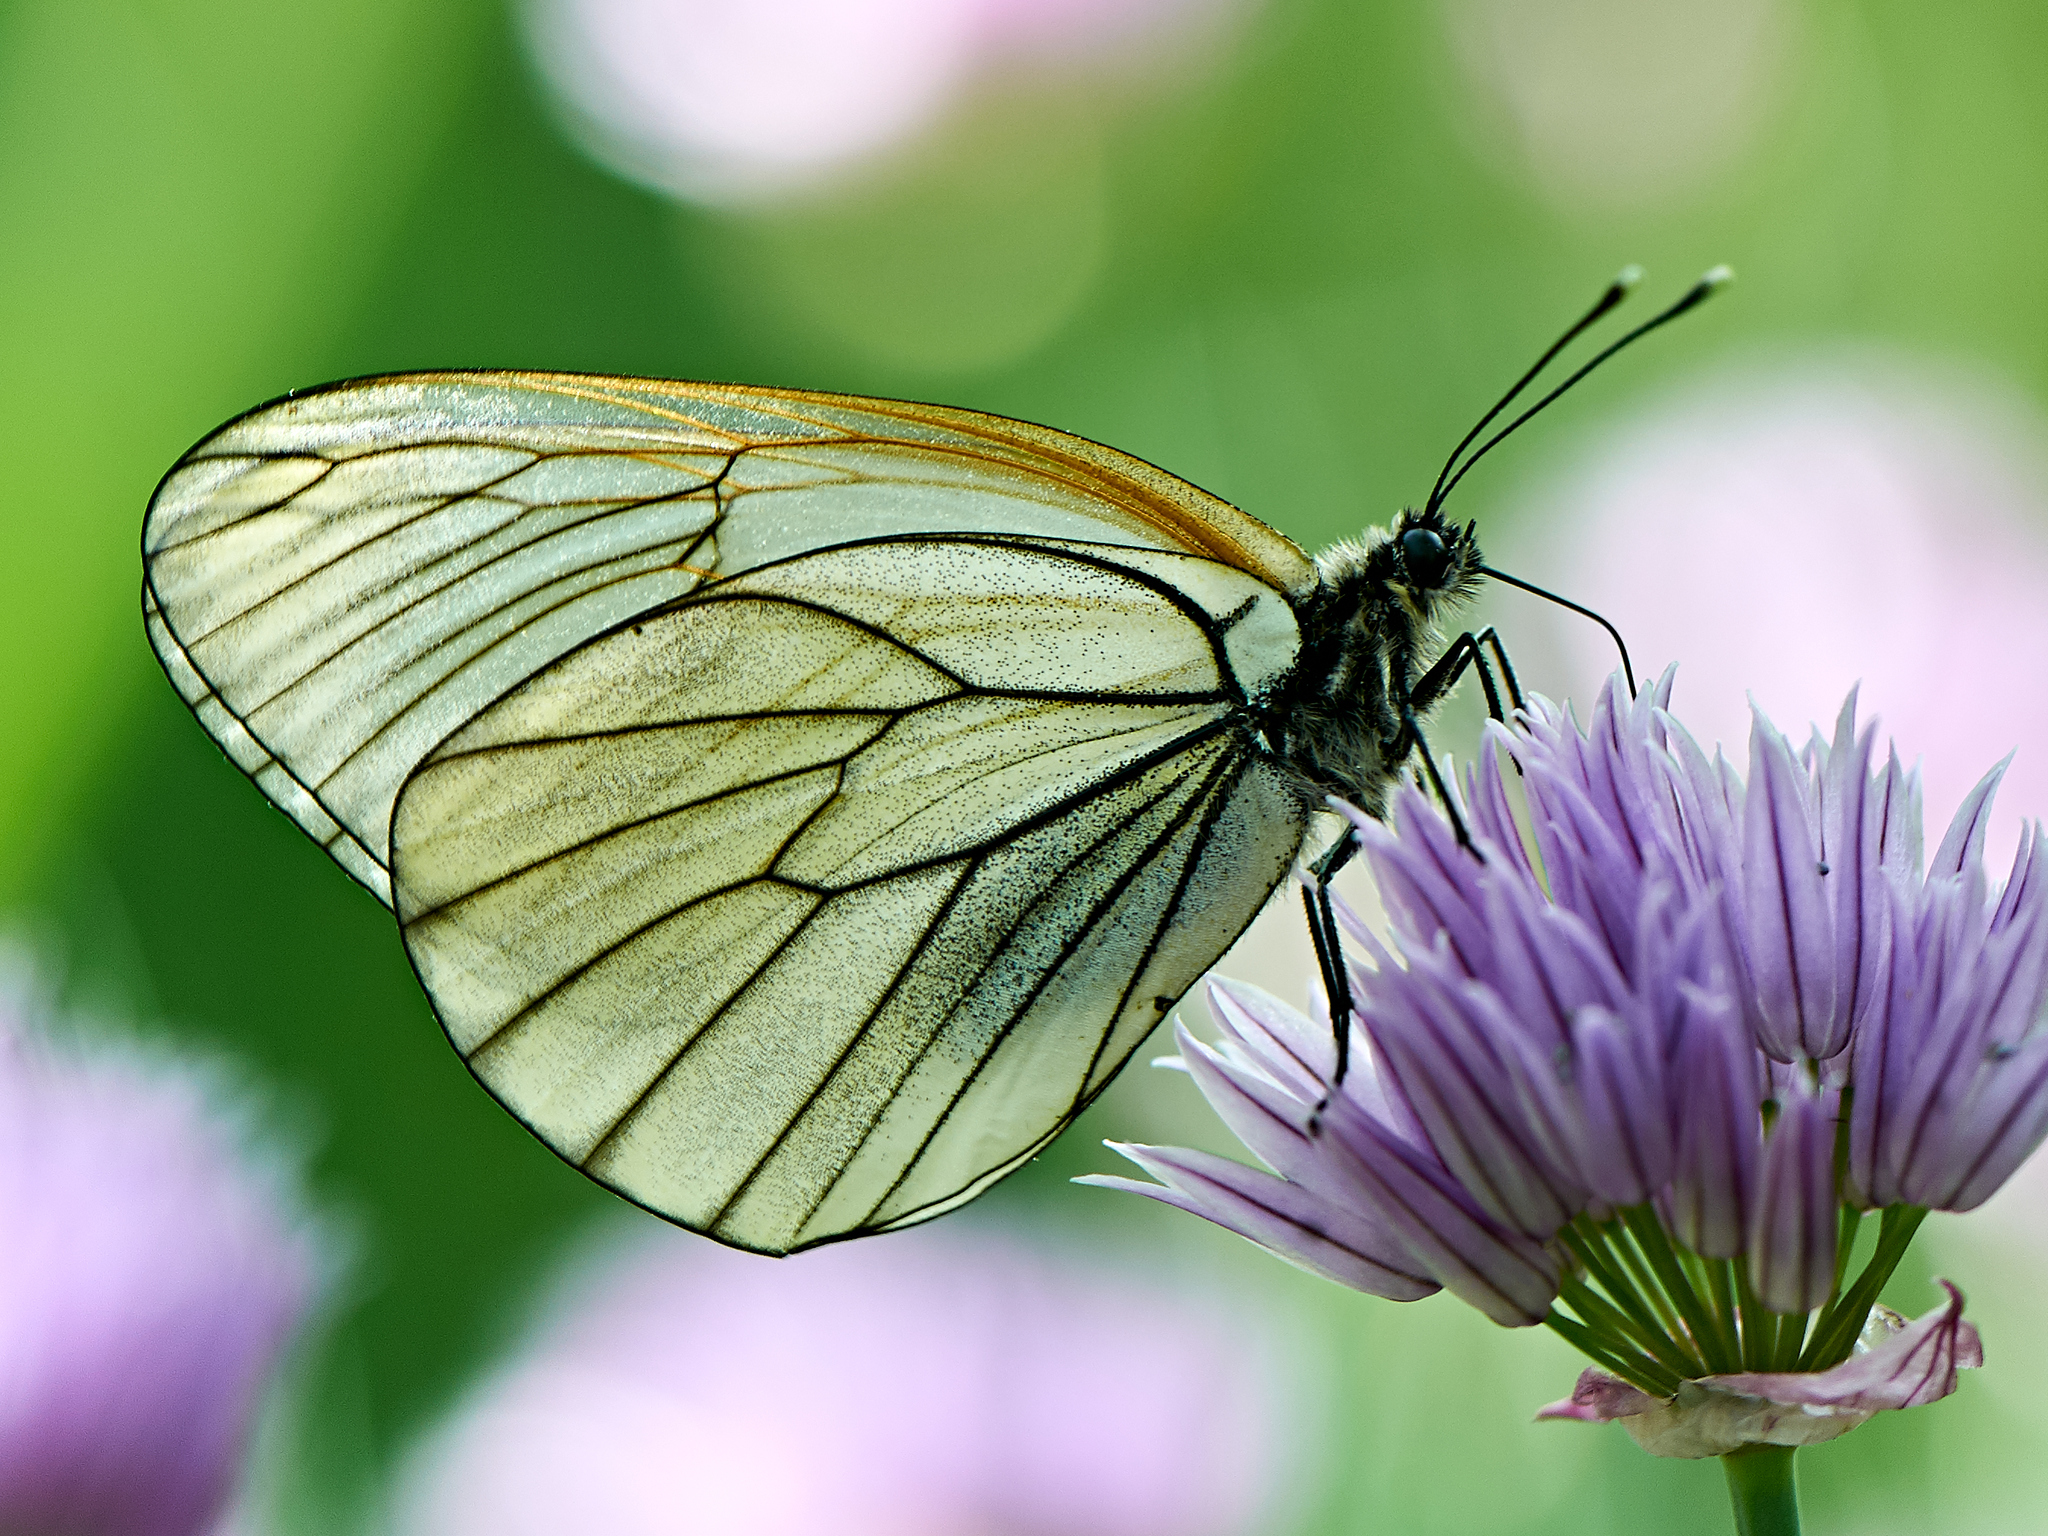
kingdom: Animalia
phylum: Arthropoda
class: Insecta
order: Lepidoptera
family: Pieridae
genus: Aporia
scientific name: Aporia crataegi
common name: Black-veined white
